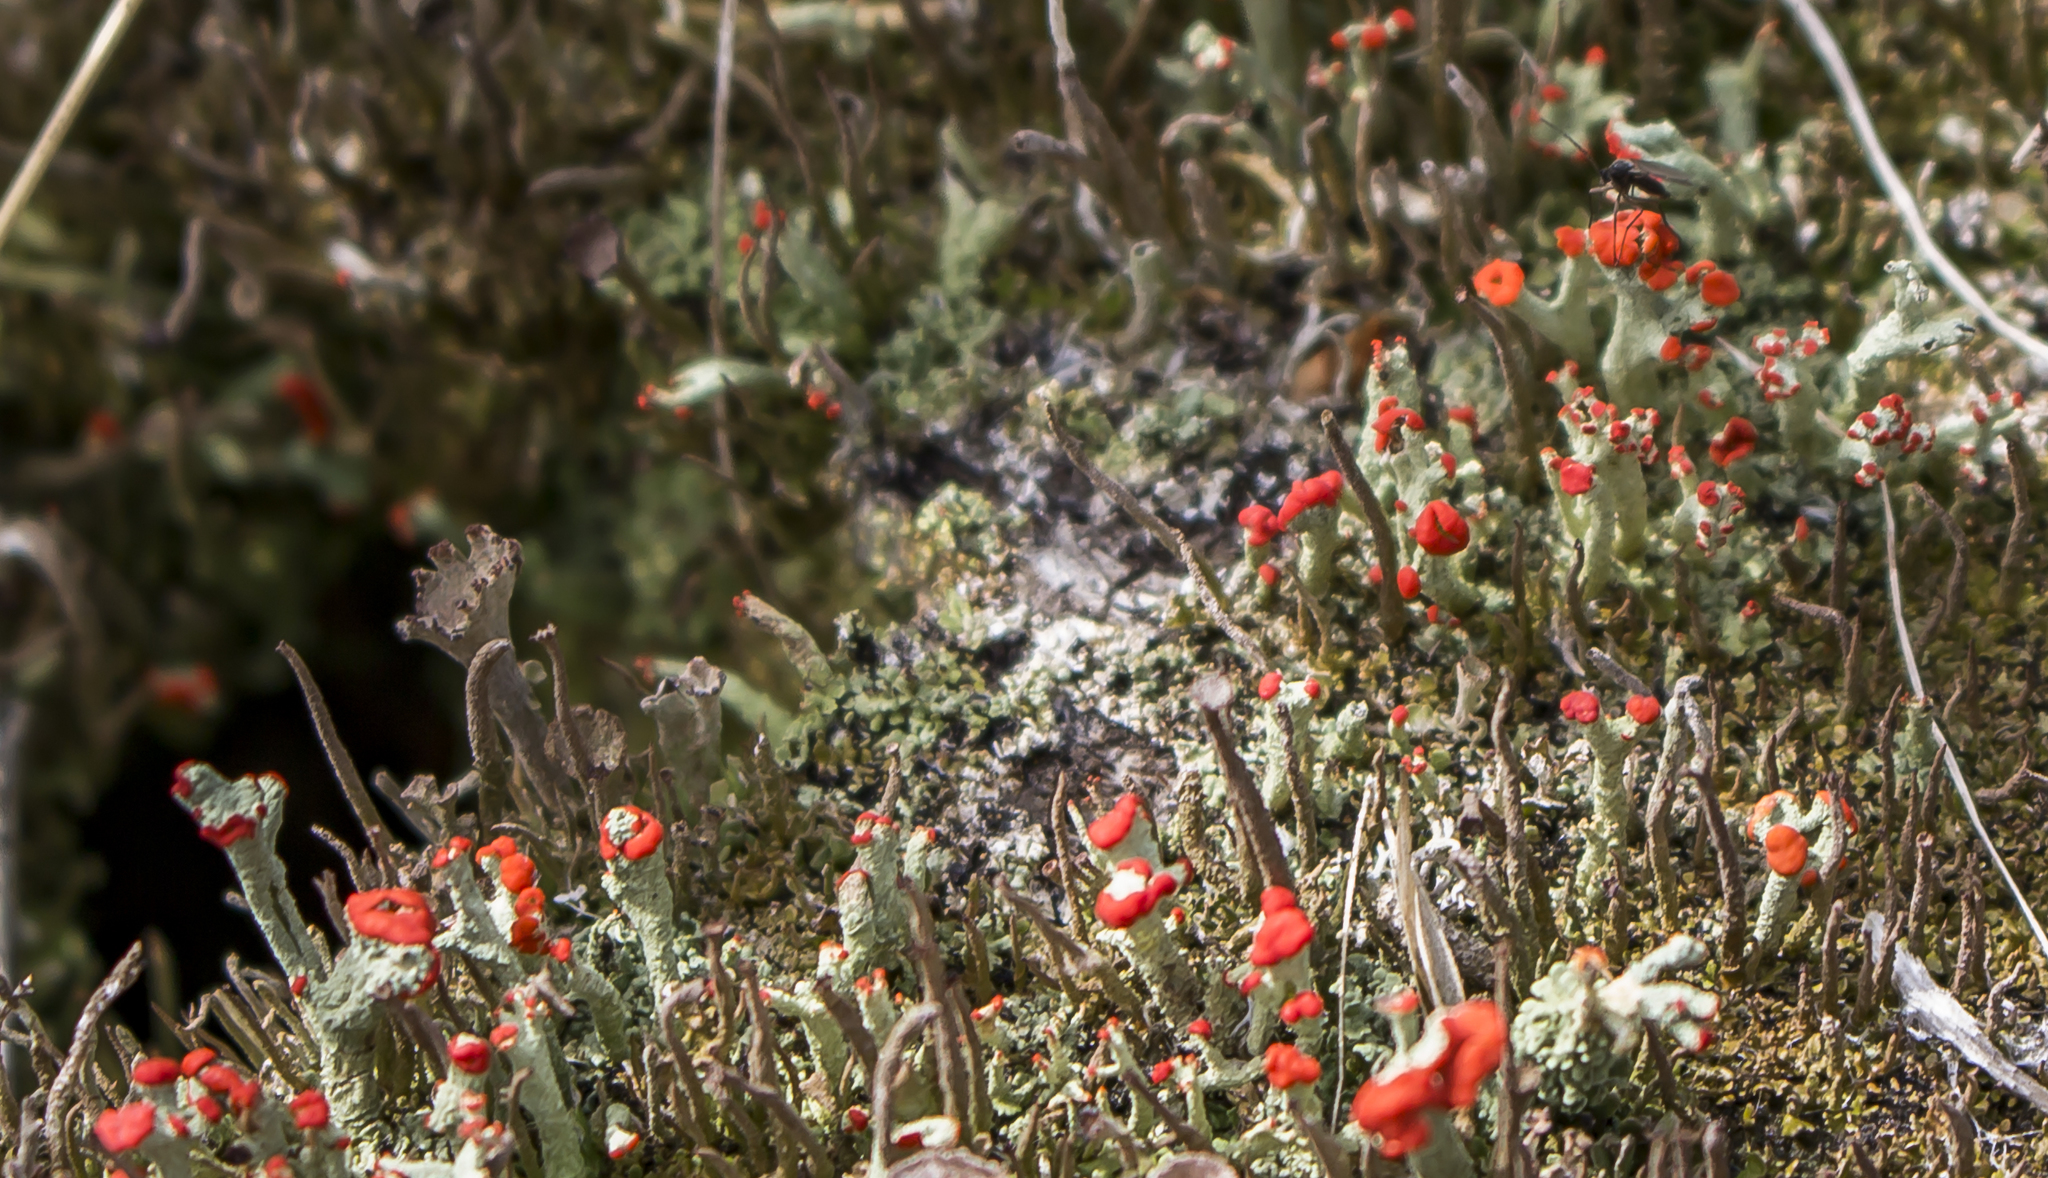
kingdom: Fungi
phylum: Ascomycota
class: Lecanoromycetes
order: Lecanorales
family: Cladoniaceae
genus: Cladonia
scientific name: Cladonia cristatella
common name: British soldier lichen
